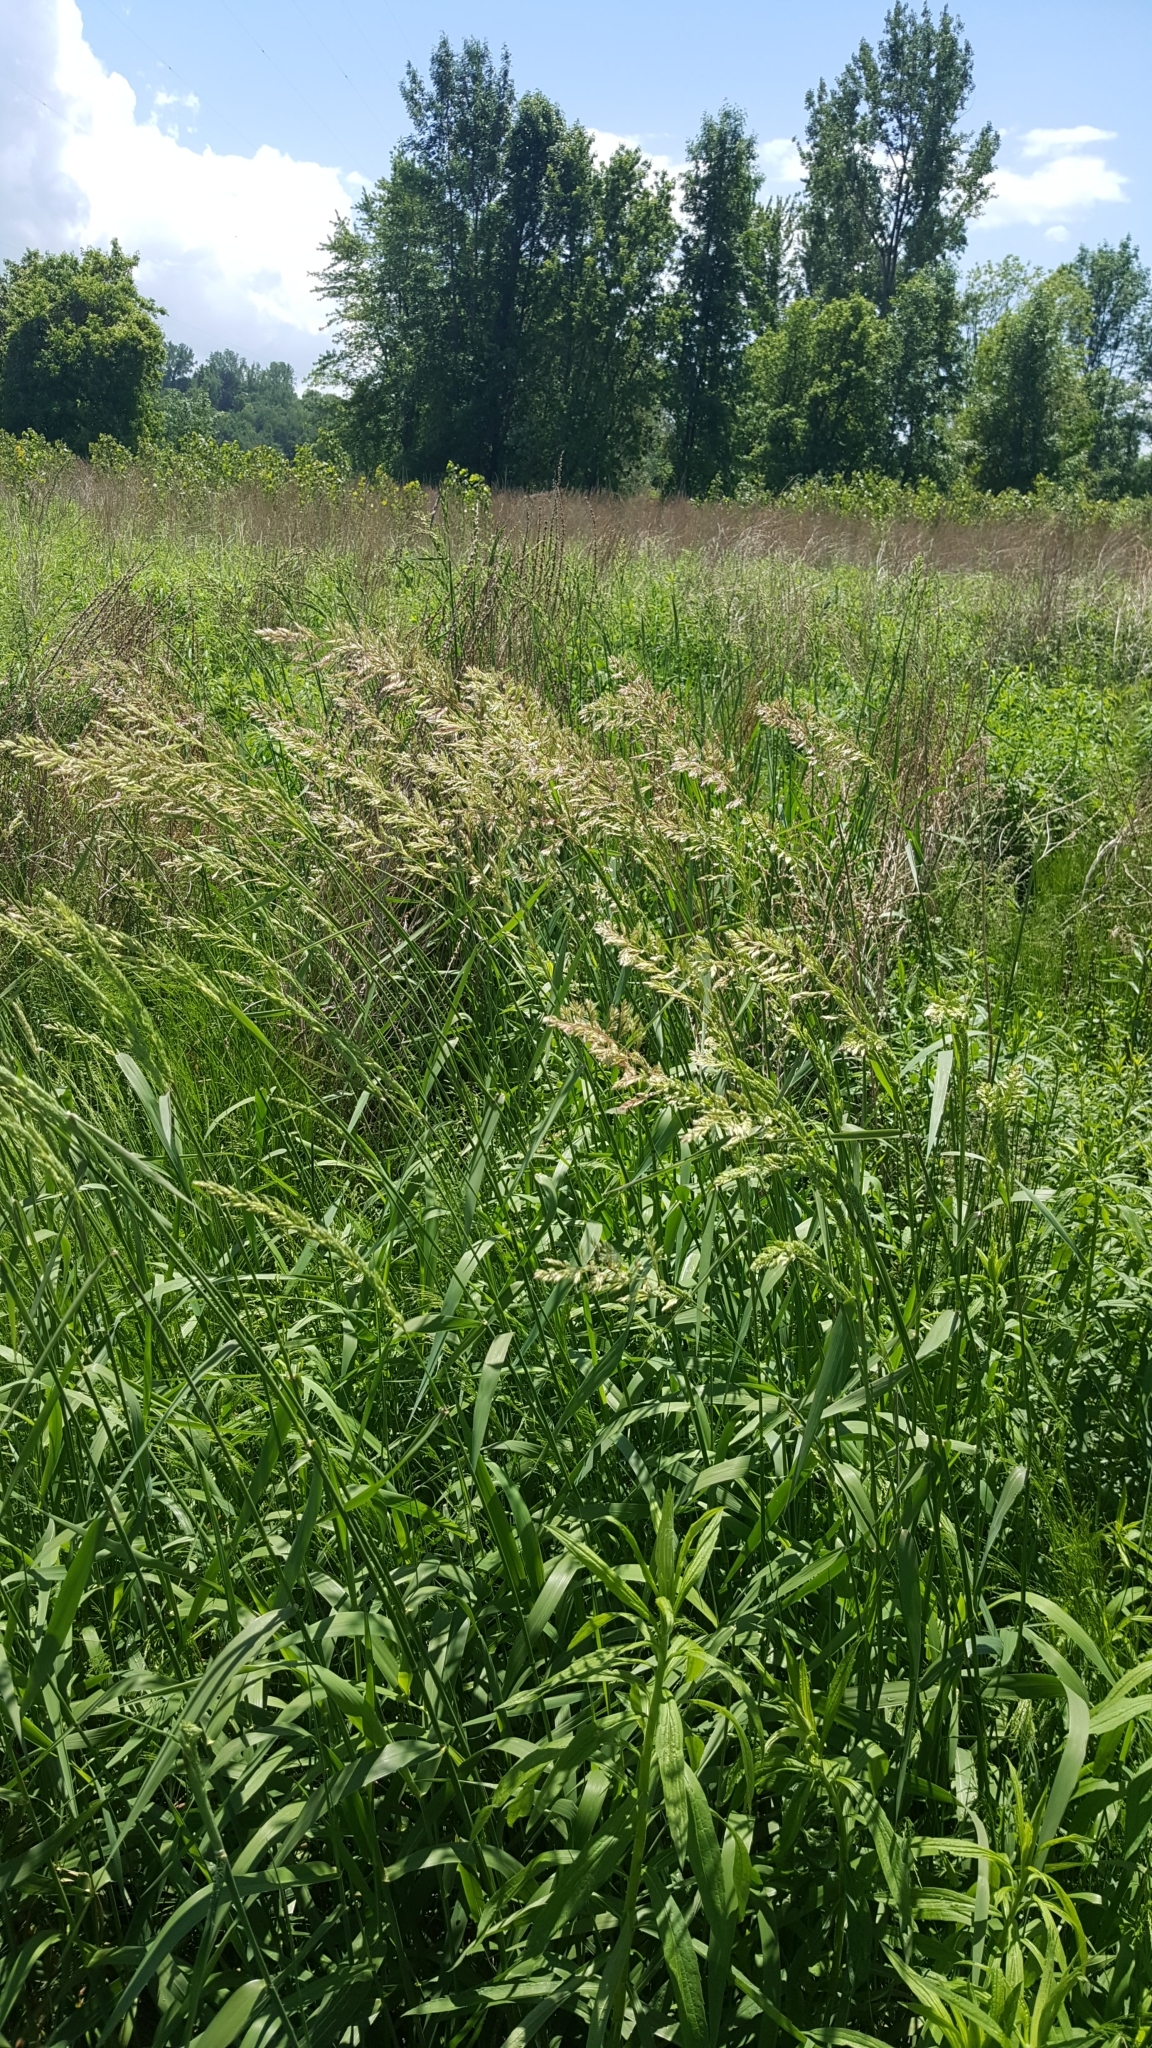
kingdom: Plantae
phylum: Tracheophyta
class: Liliopsida
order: Poales
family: Poaceae
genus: Phalaris
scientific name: Phalaris arundinacea
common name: Reed canary-grass
